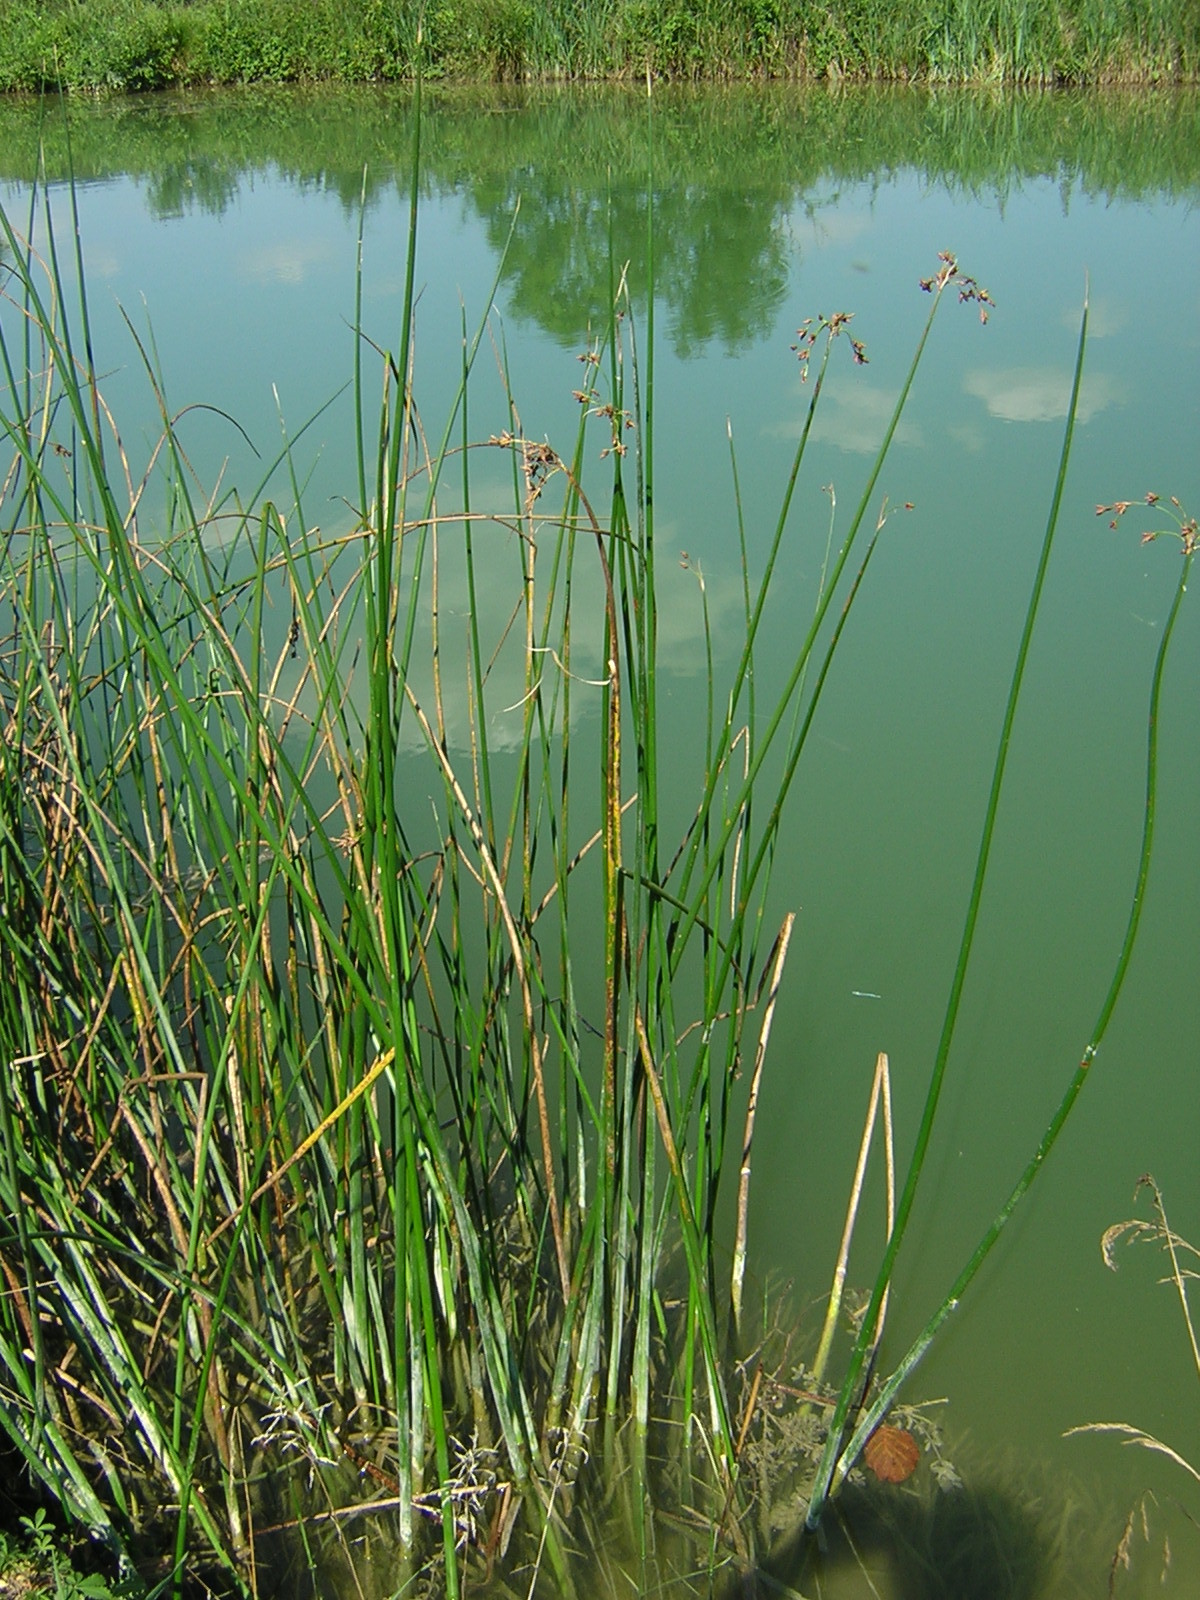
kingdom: Plantae
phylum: Tracheophyta
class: Liliopsida
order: Poales
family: Cyperaceae
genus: Schoenoplectus
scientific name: Schoenoplectus lacustris
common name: Common club-rush
